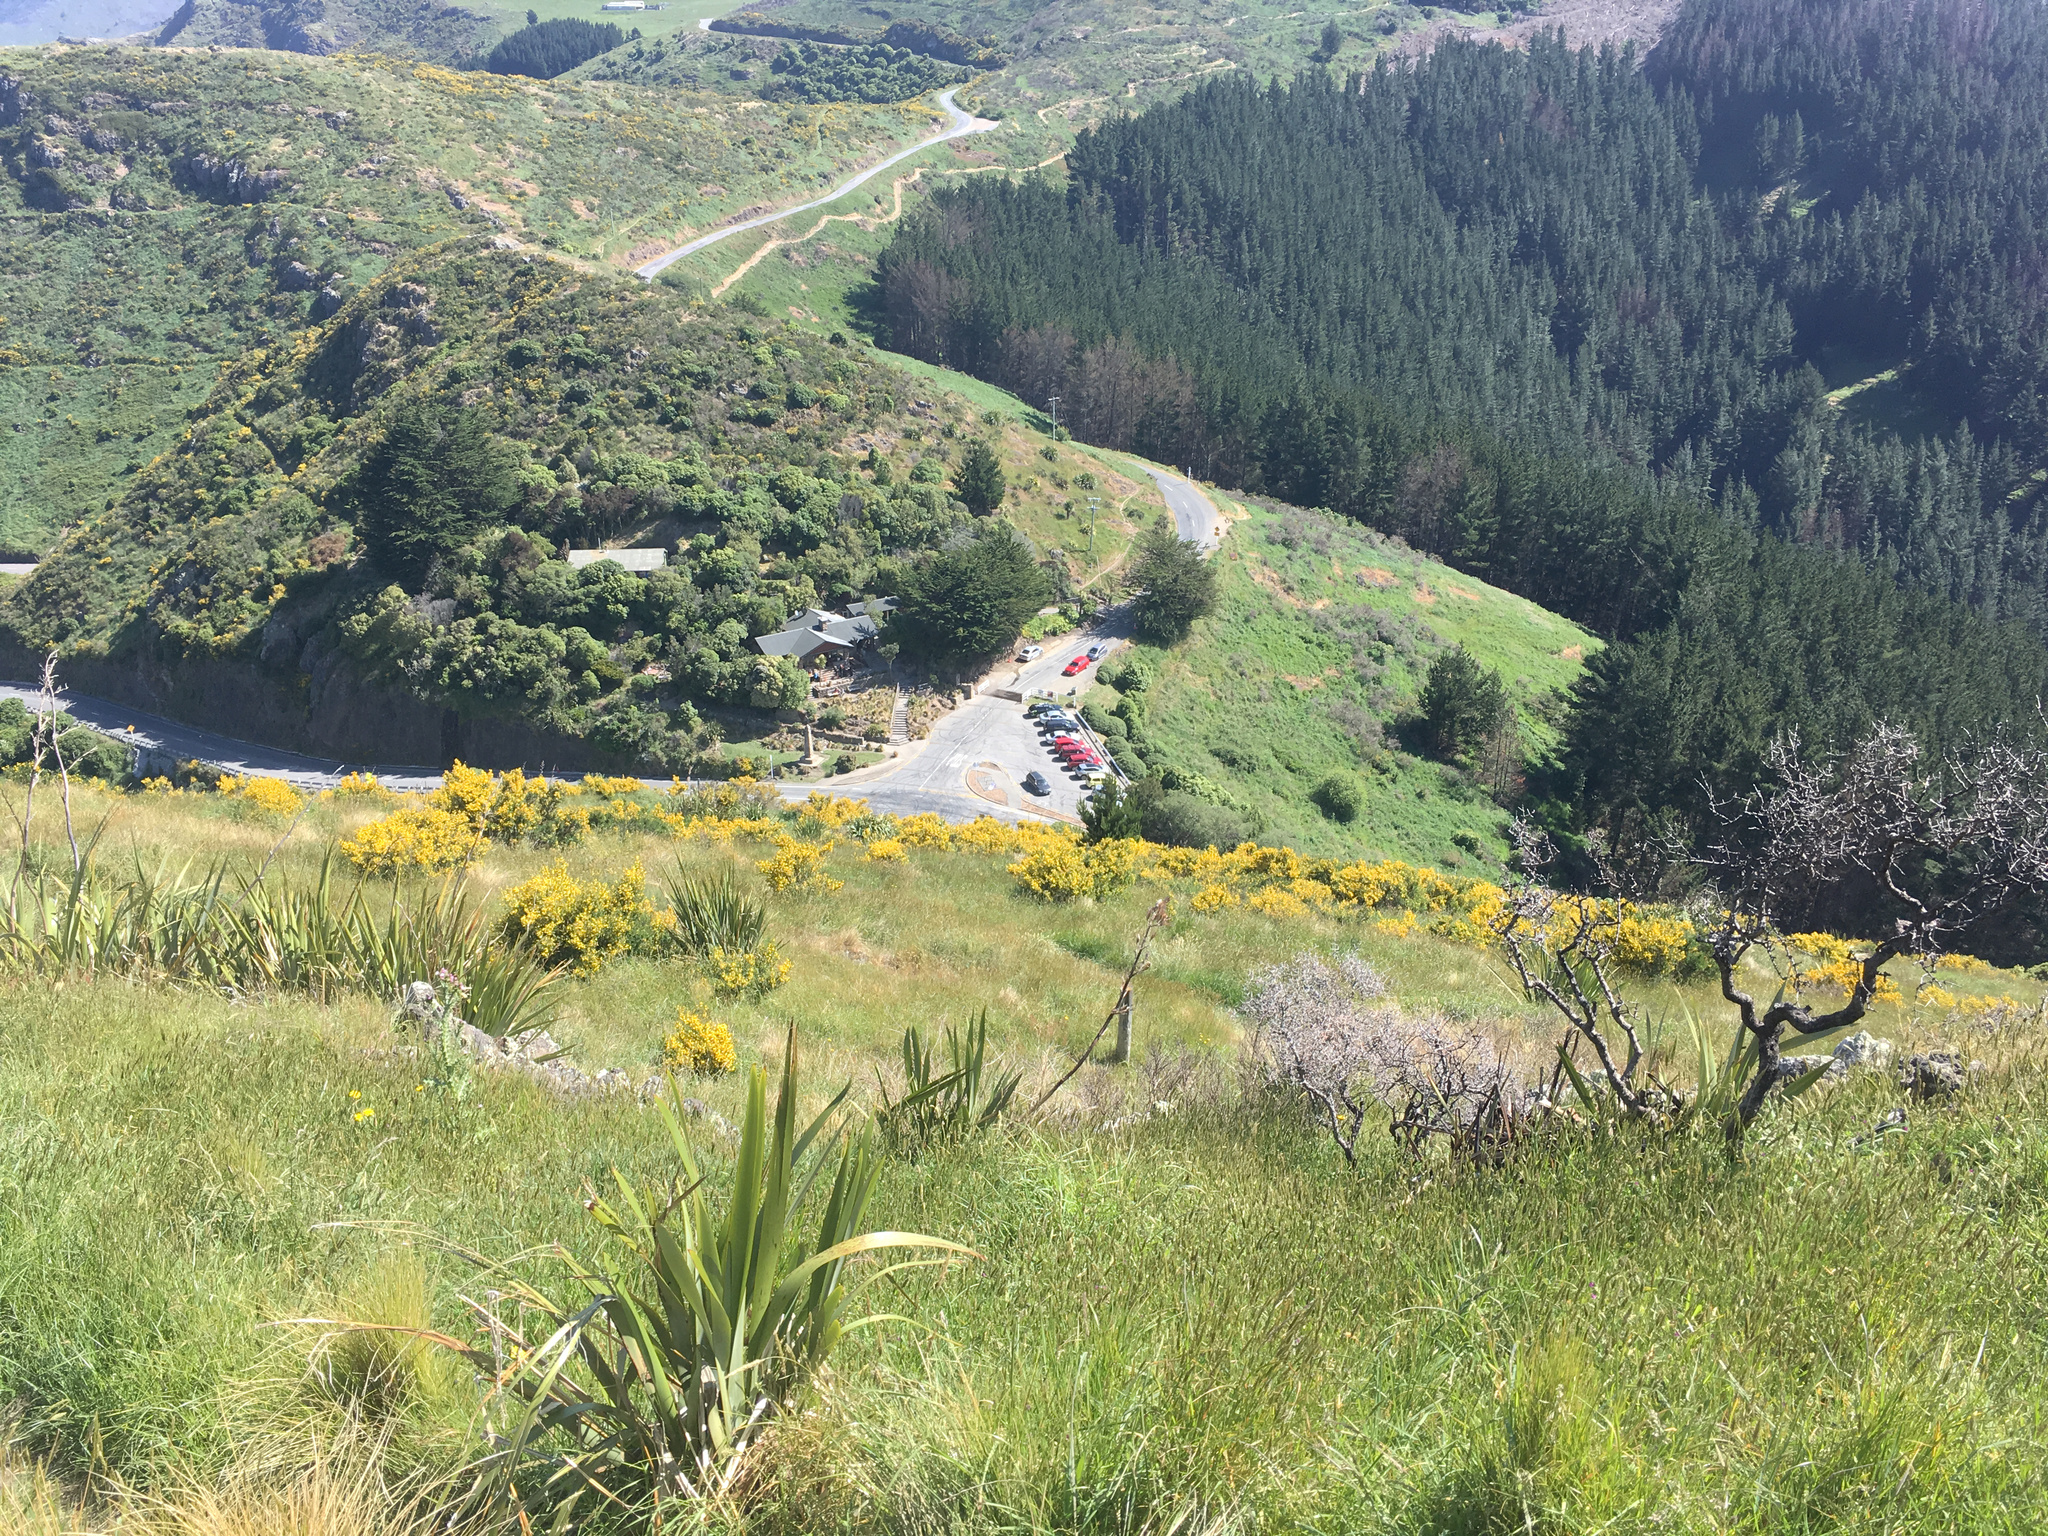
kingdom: Plantae
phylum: Tracheophyta
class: Liliopsida
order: Asparagales
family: Asphodelaceae
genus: Phormium
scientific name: Phormium tenax
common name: New zealand flax
